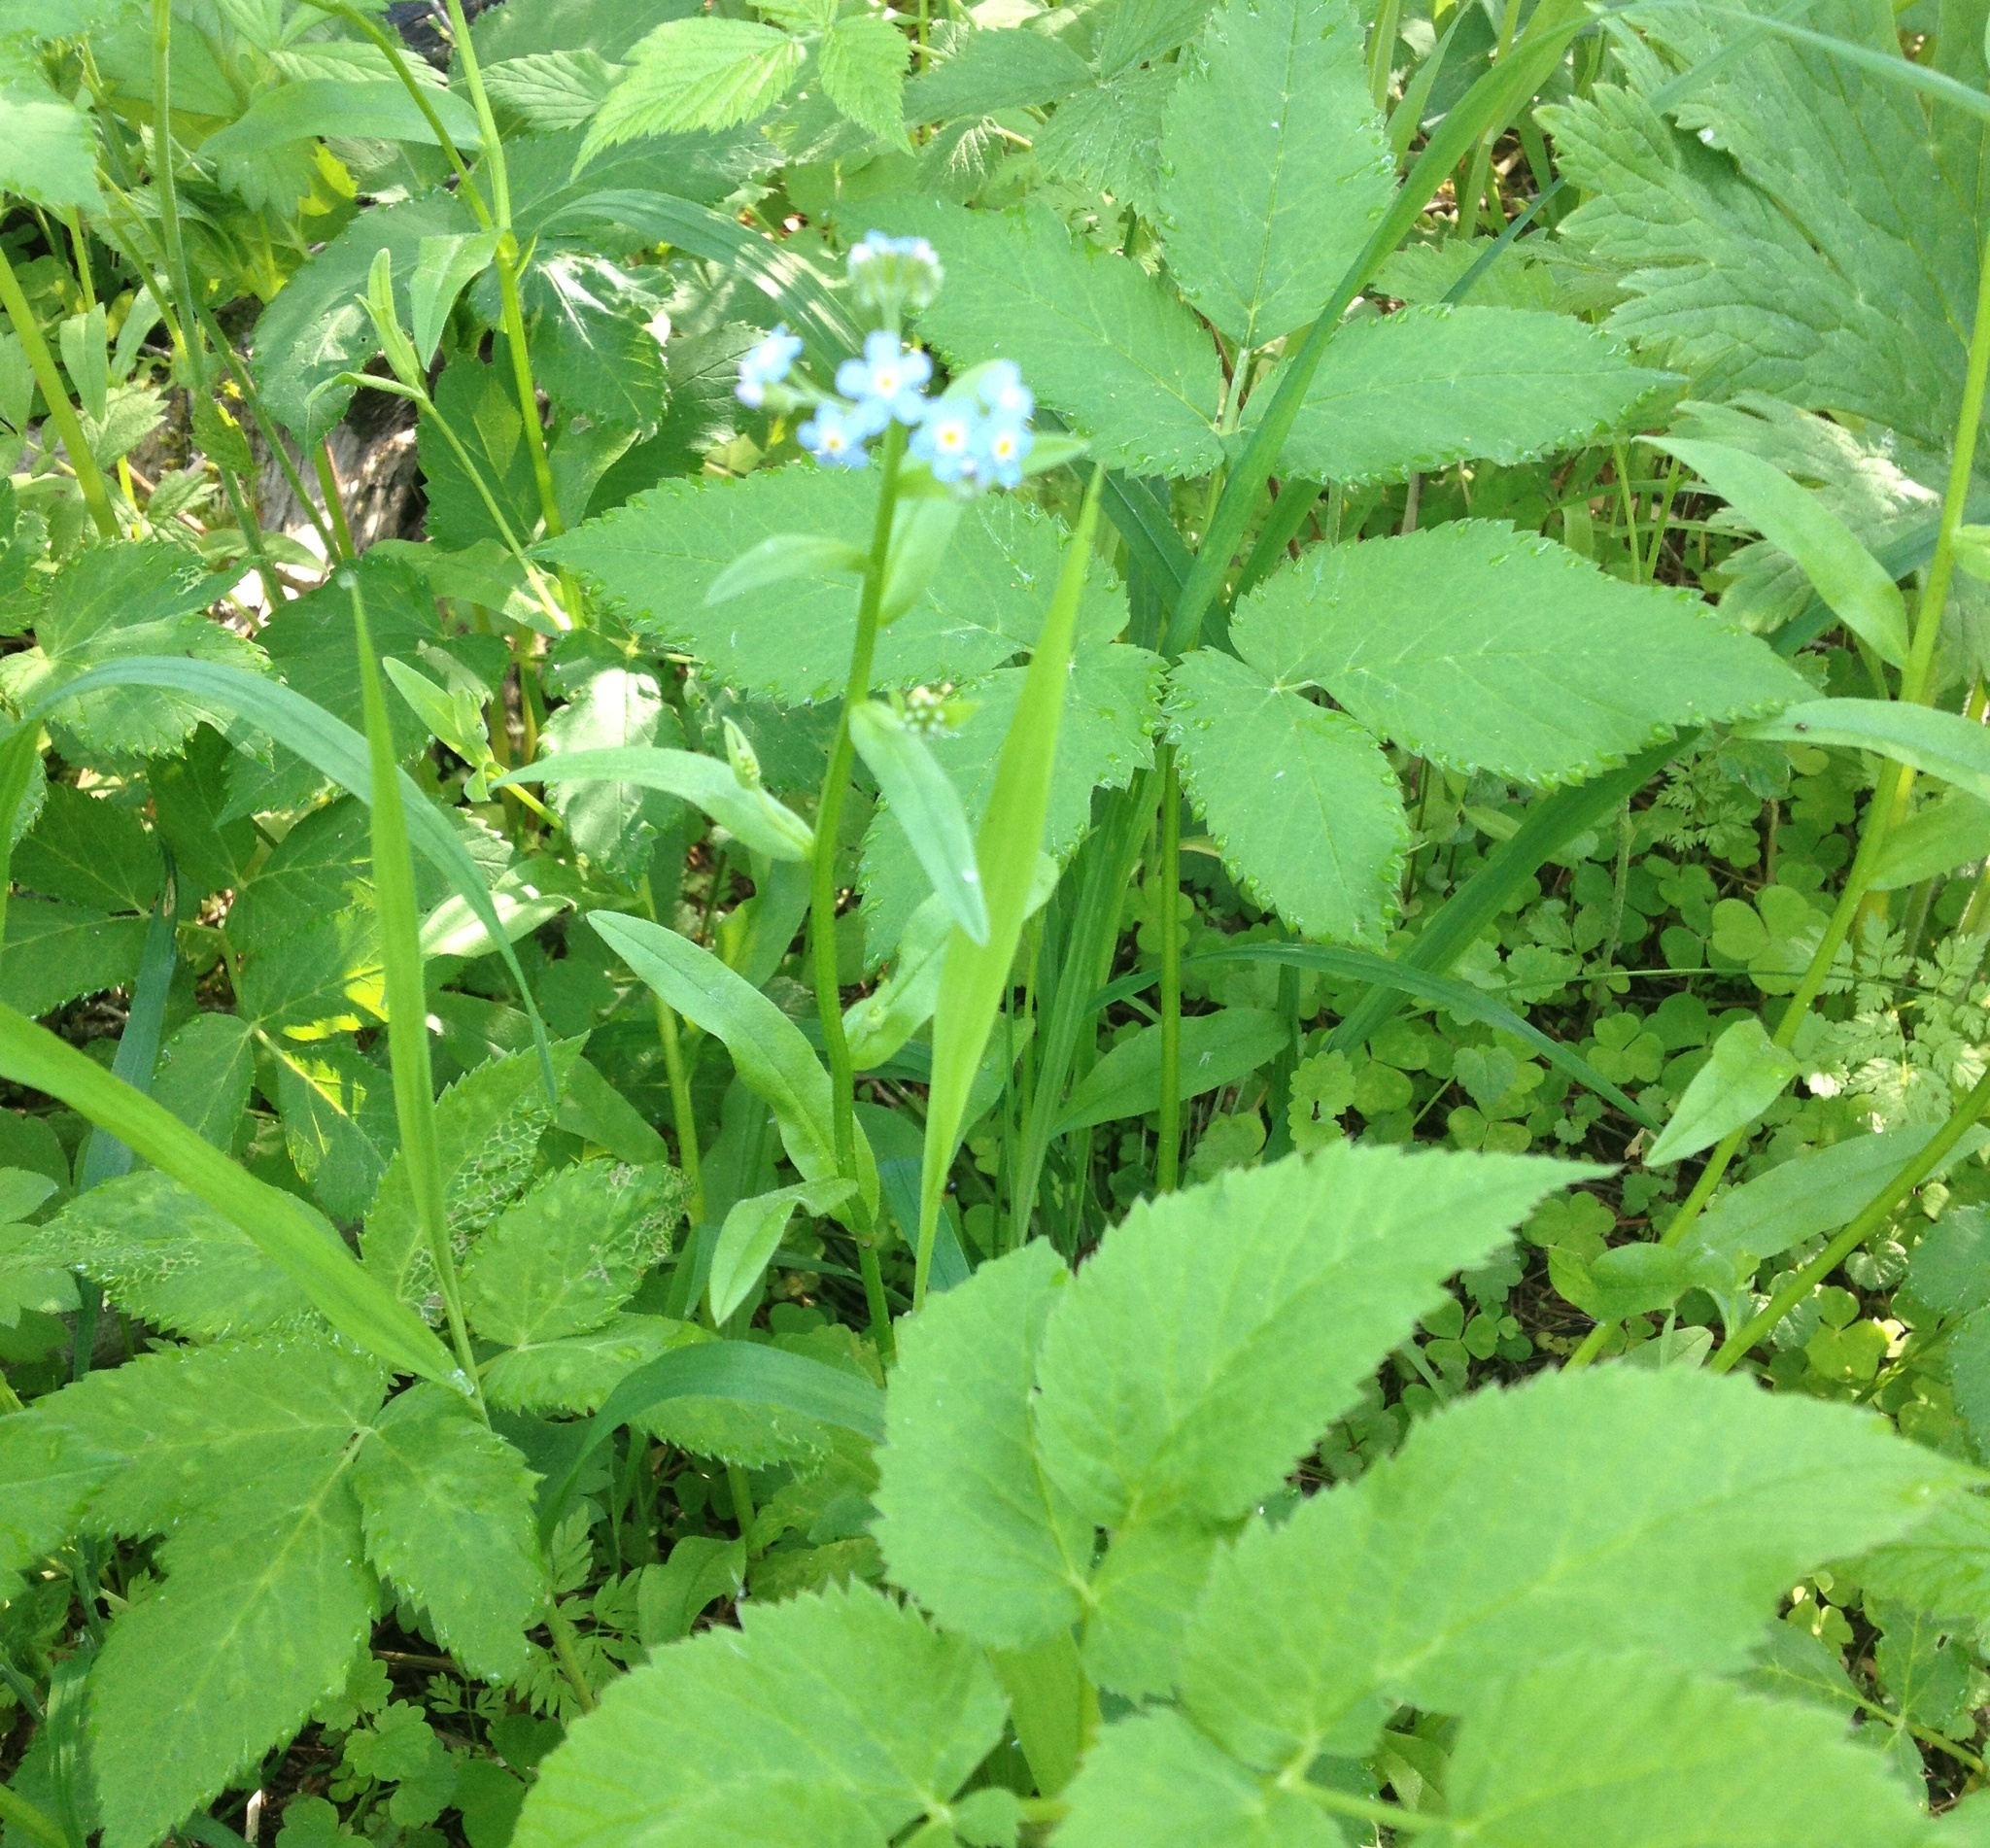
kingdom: Plantae
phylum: Tracheophyta
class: Magnoliopsida
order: Boraginales
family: Boraginaceae
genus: Myosotis
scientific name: Myosotis scorpioides
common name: Water forget-me-not
